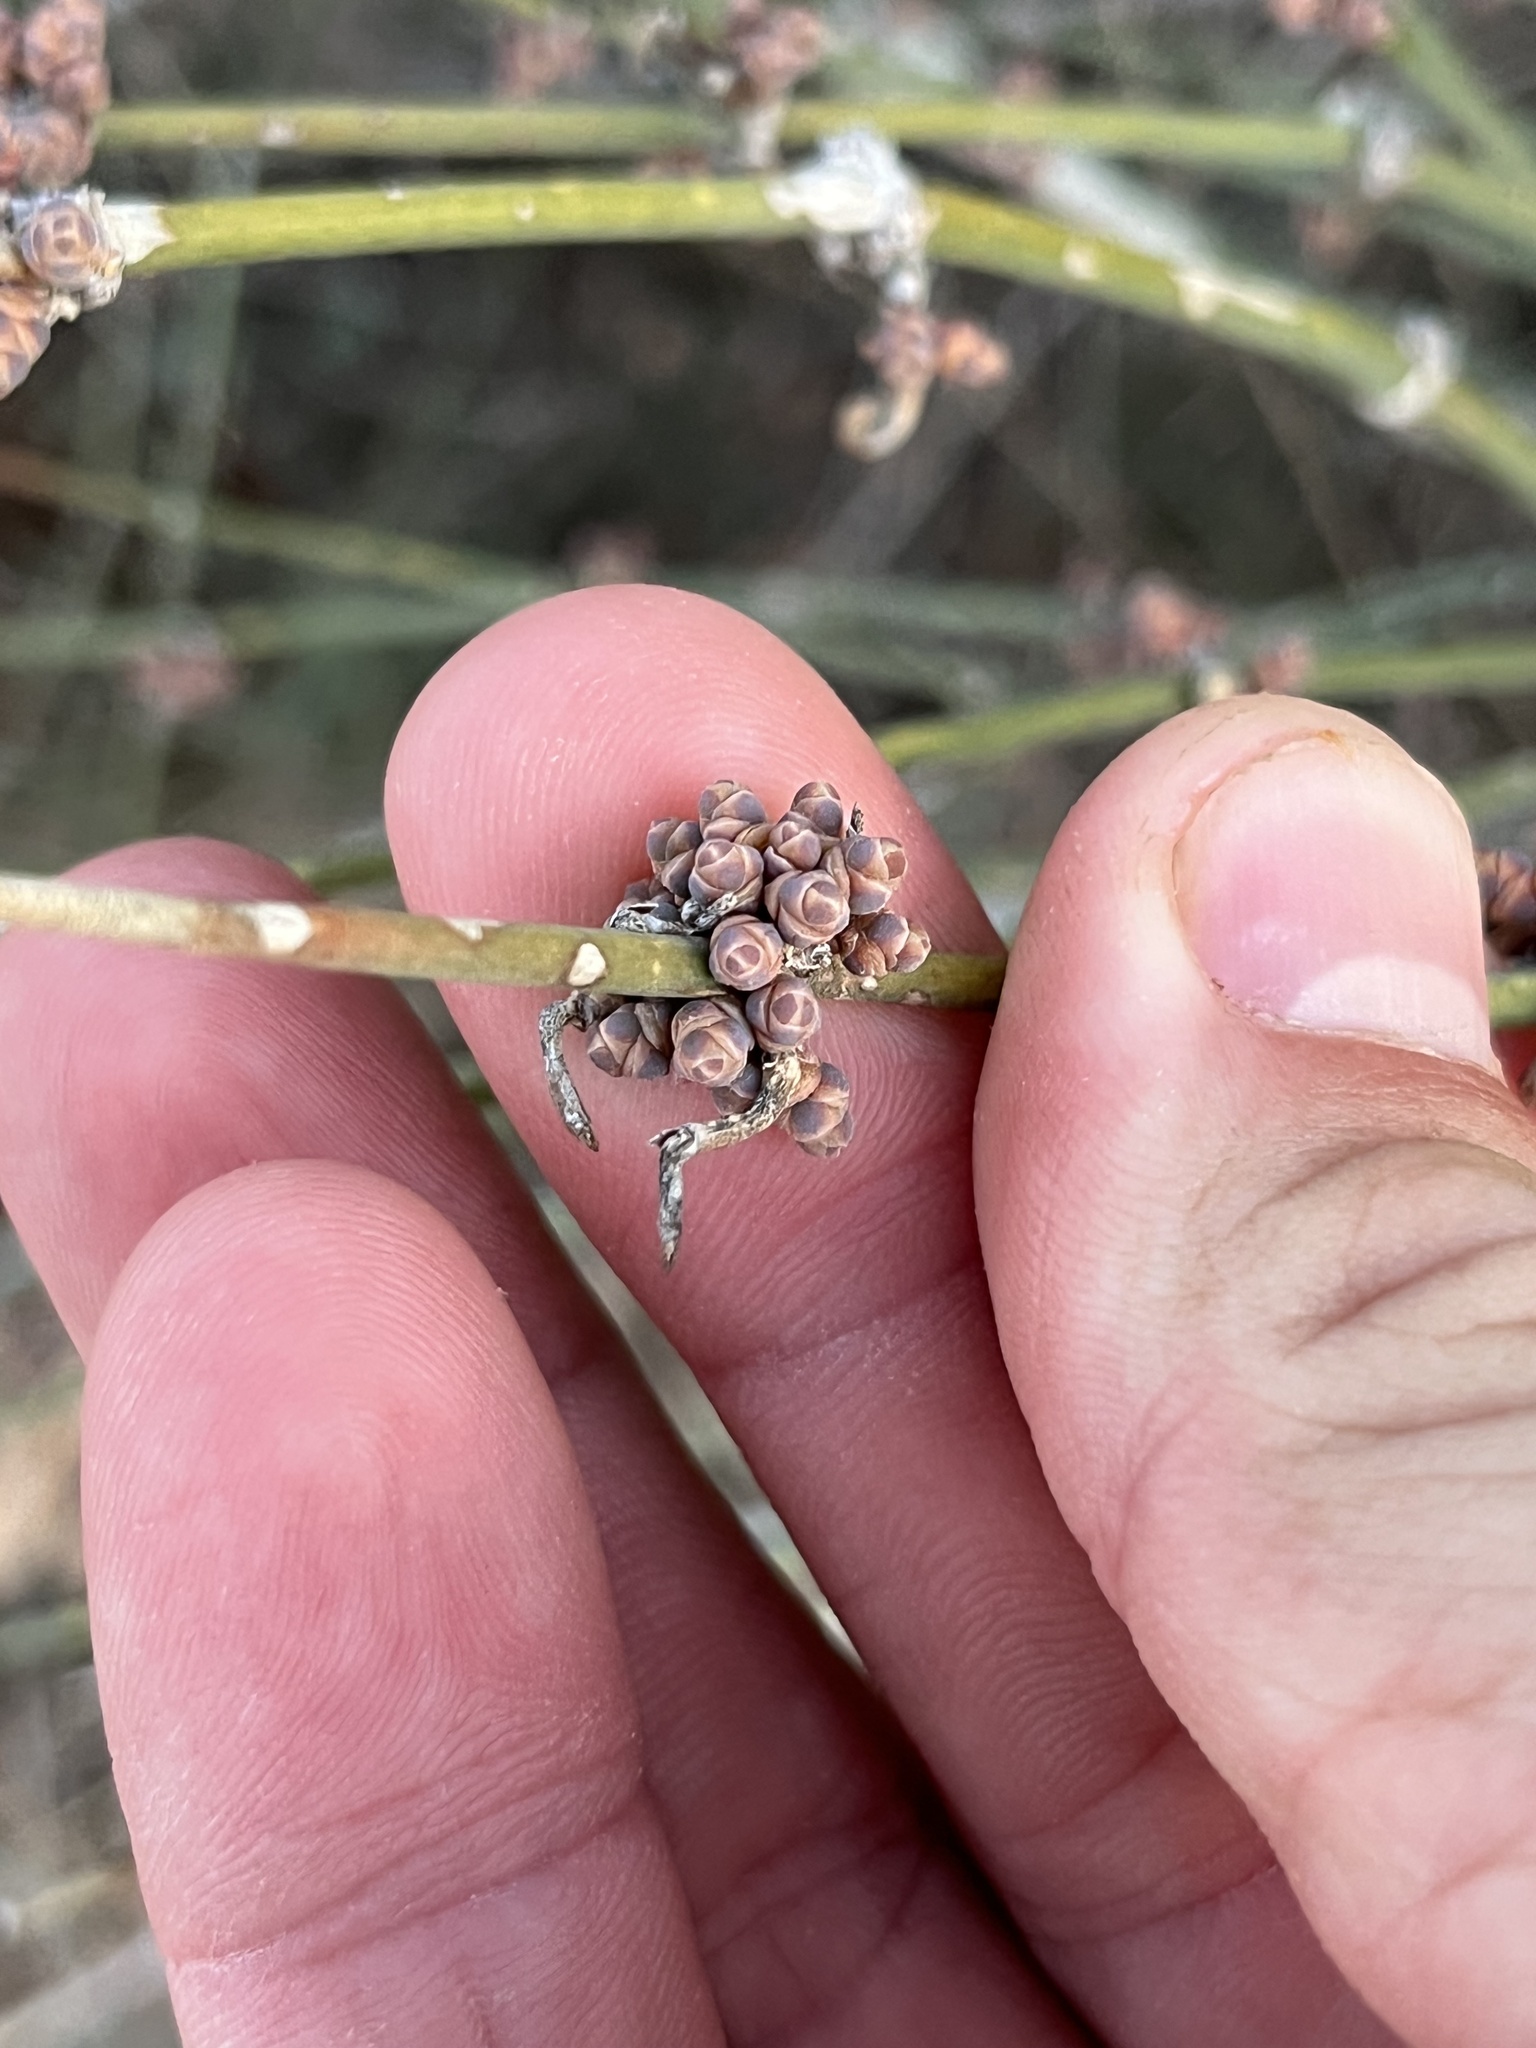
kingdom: Plantae
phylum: Tracheophyta
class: Gnetopsida
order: Ephedrales
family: Ephedraceae
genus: Ephedra
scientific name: Ephedra antisyphilitica
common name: Clipweed
